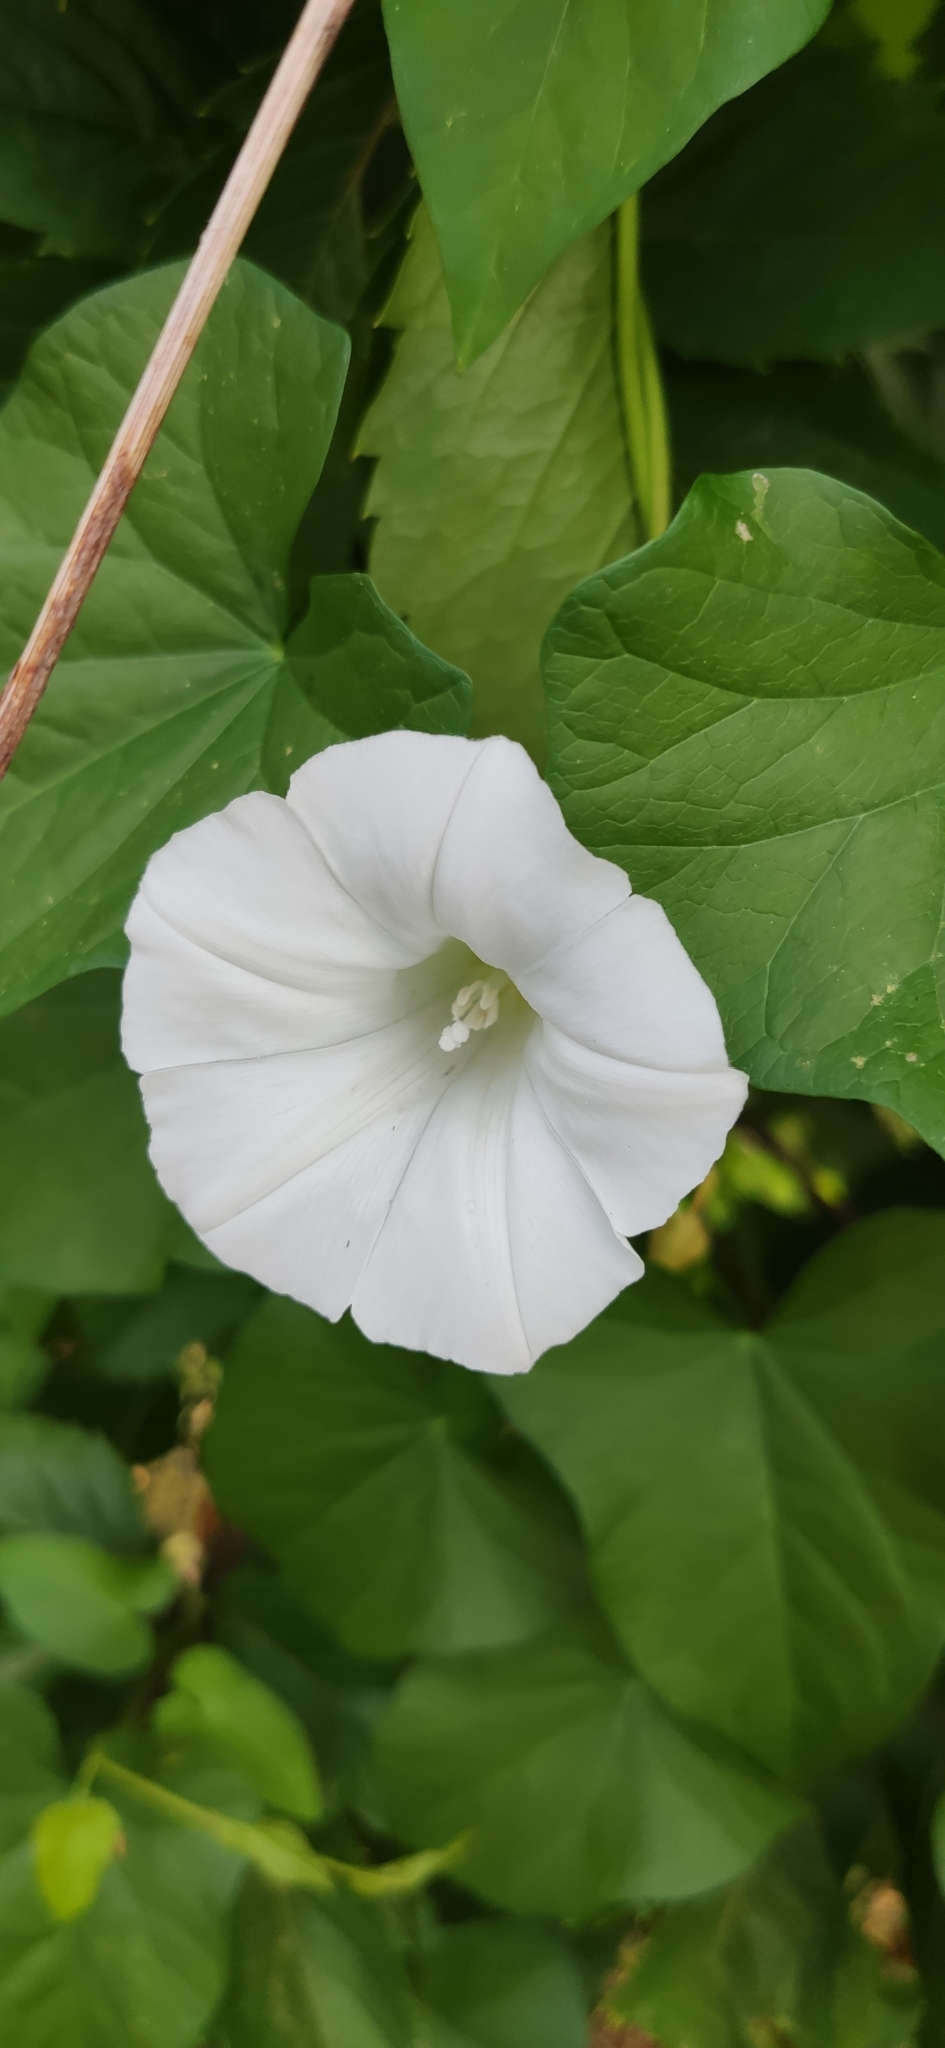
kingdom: Plantae
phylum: Tracheophyta
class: Magnoliopsida
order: Solanales
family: Convolvulaceae
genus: Calystegia
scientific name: Calystegia sepium
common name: Hedge bindweed
